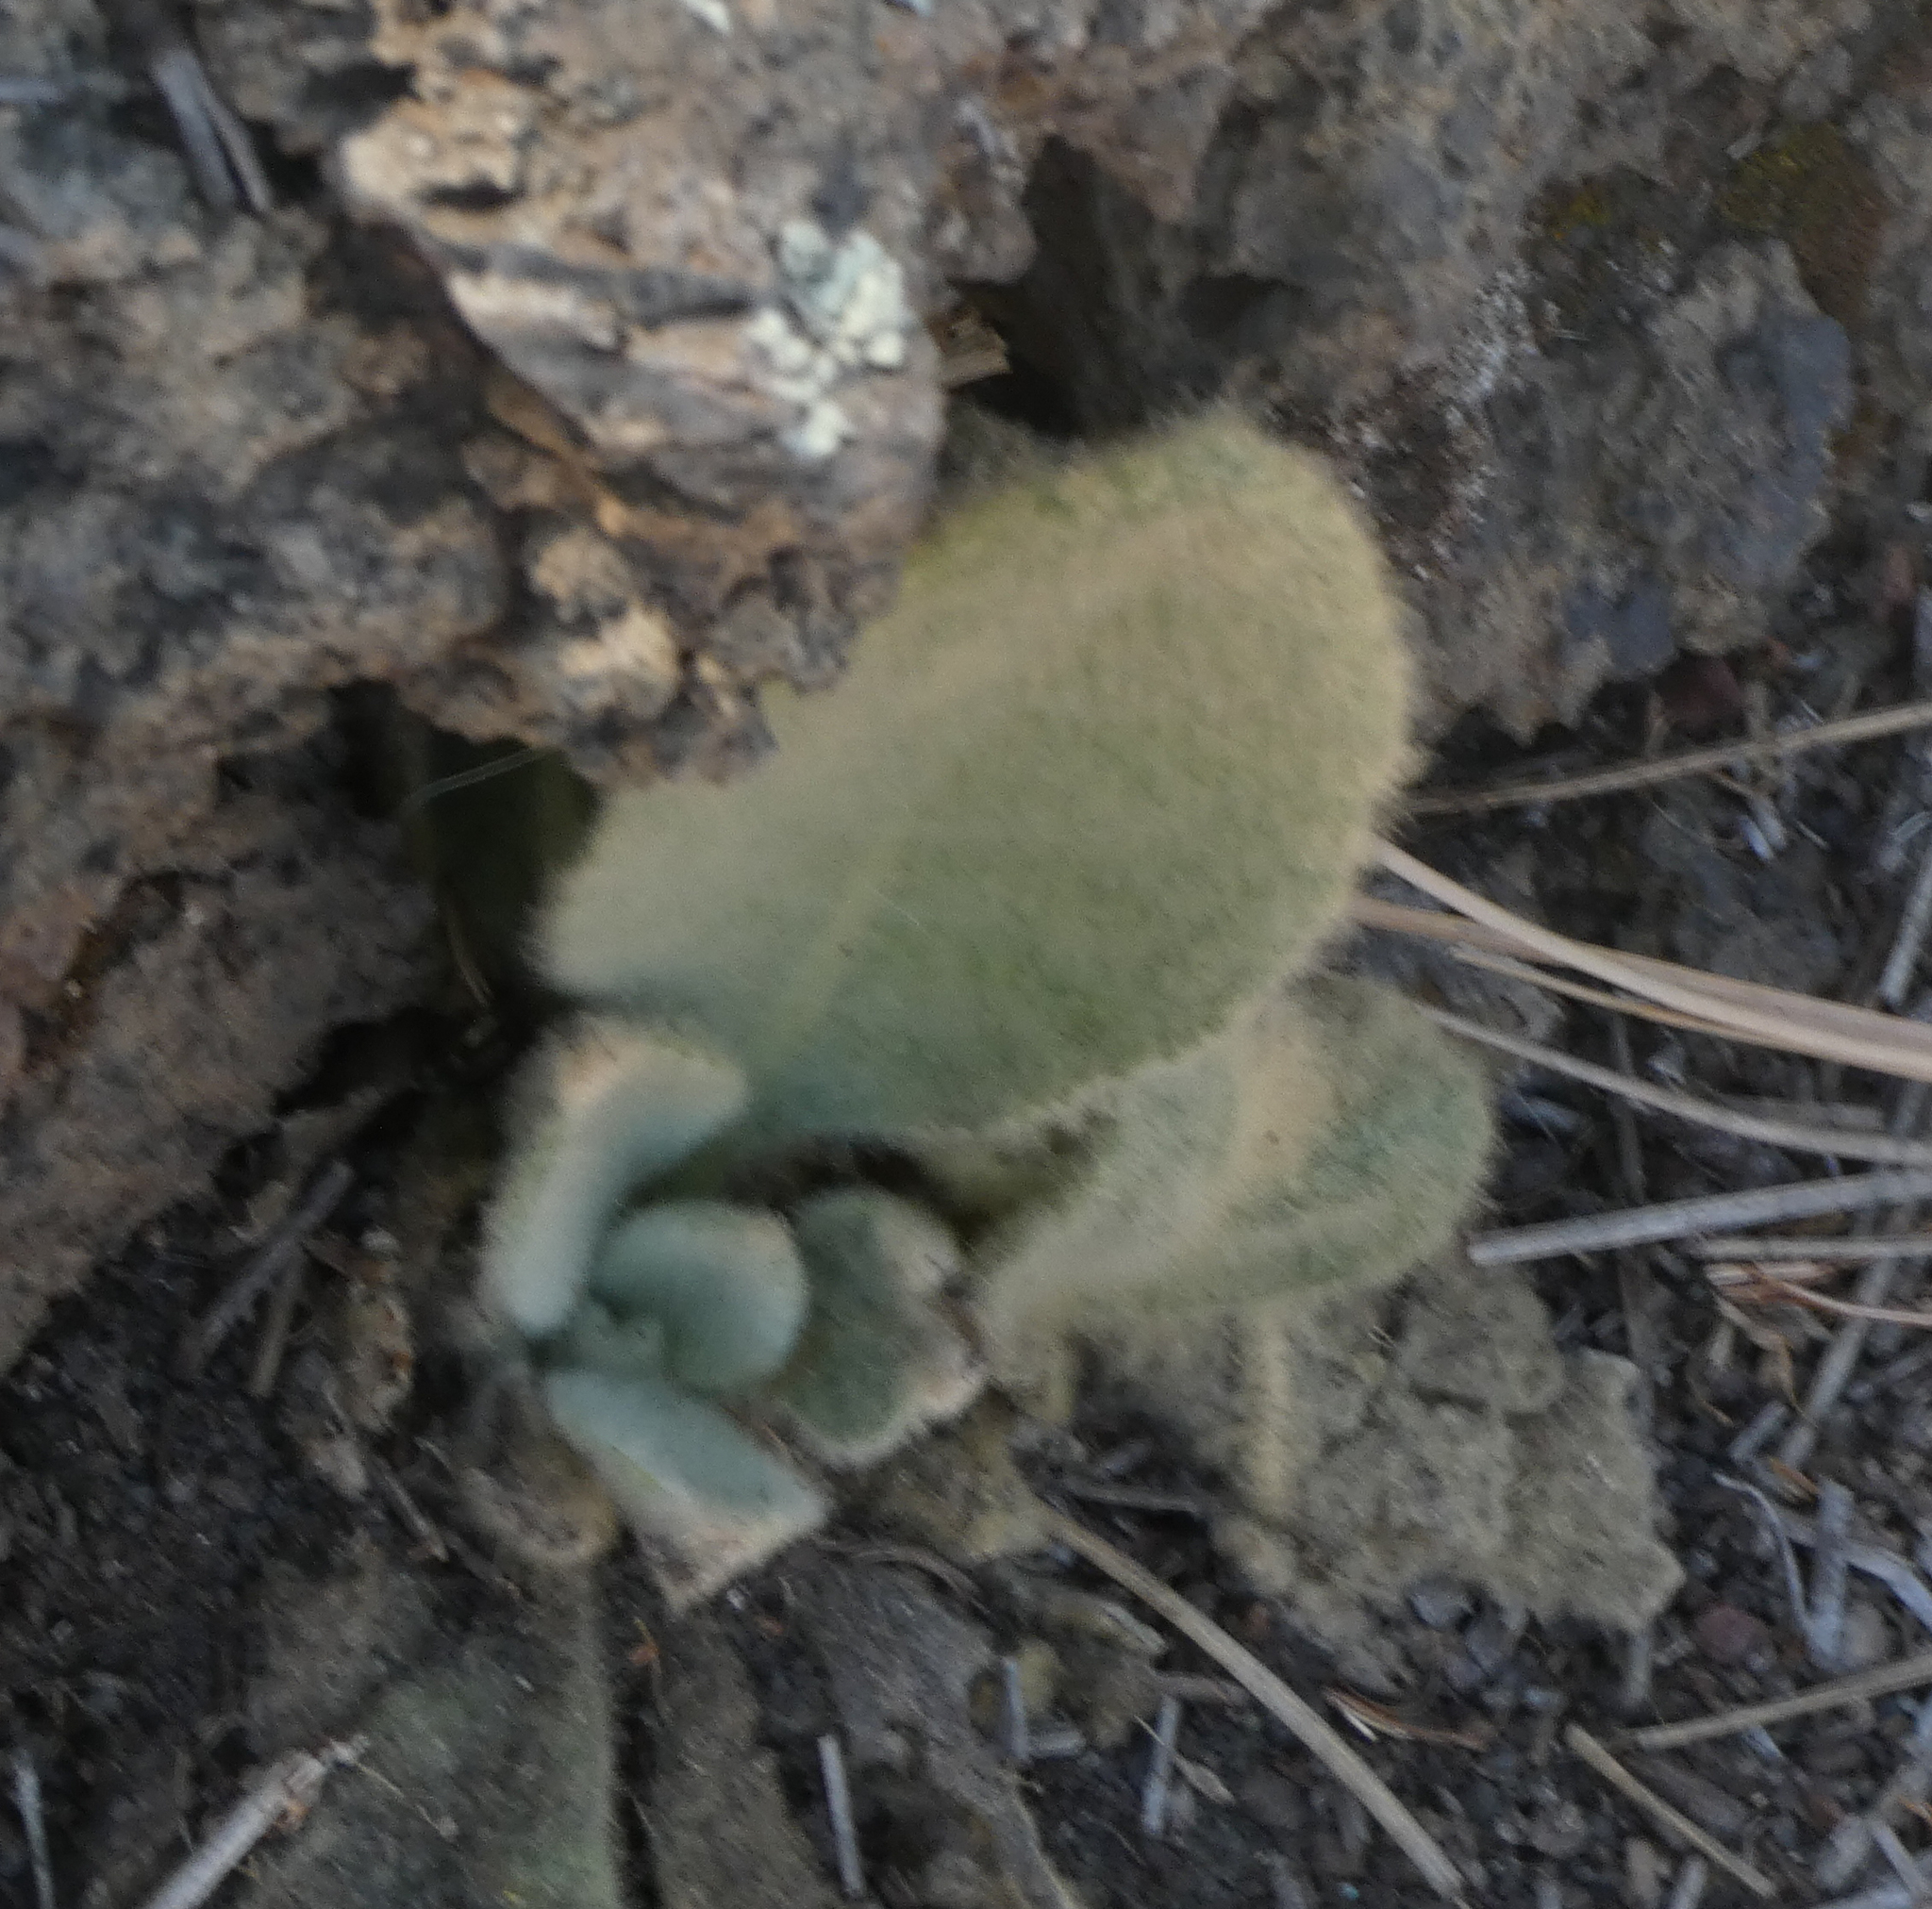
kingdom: Plantae
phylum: Tracheophyta
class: Magnoliopsida
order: Lamiales
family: Scrophulariaceae
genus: Verbascum
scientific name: Verbascum thapsus
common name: Common mullein
